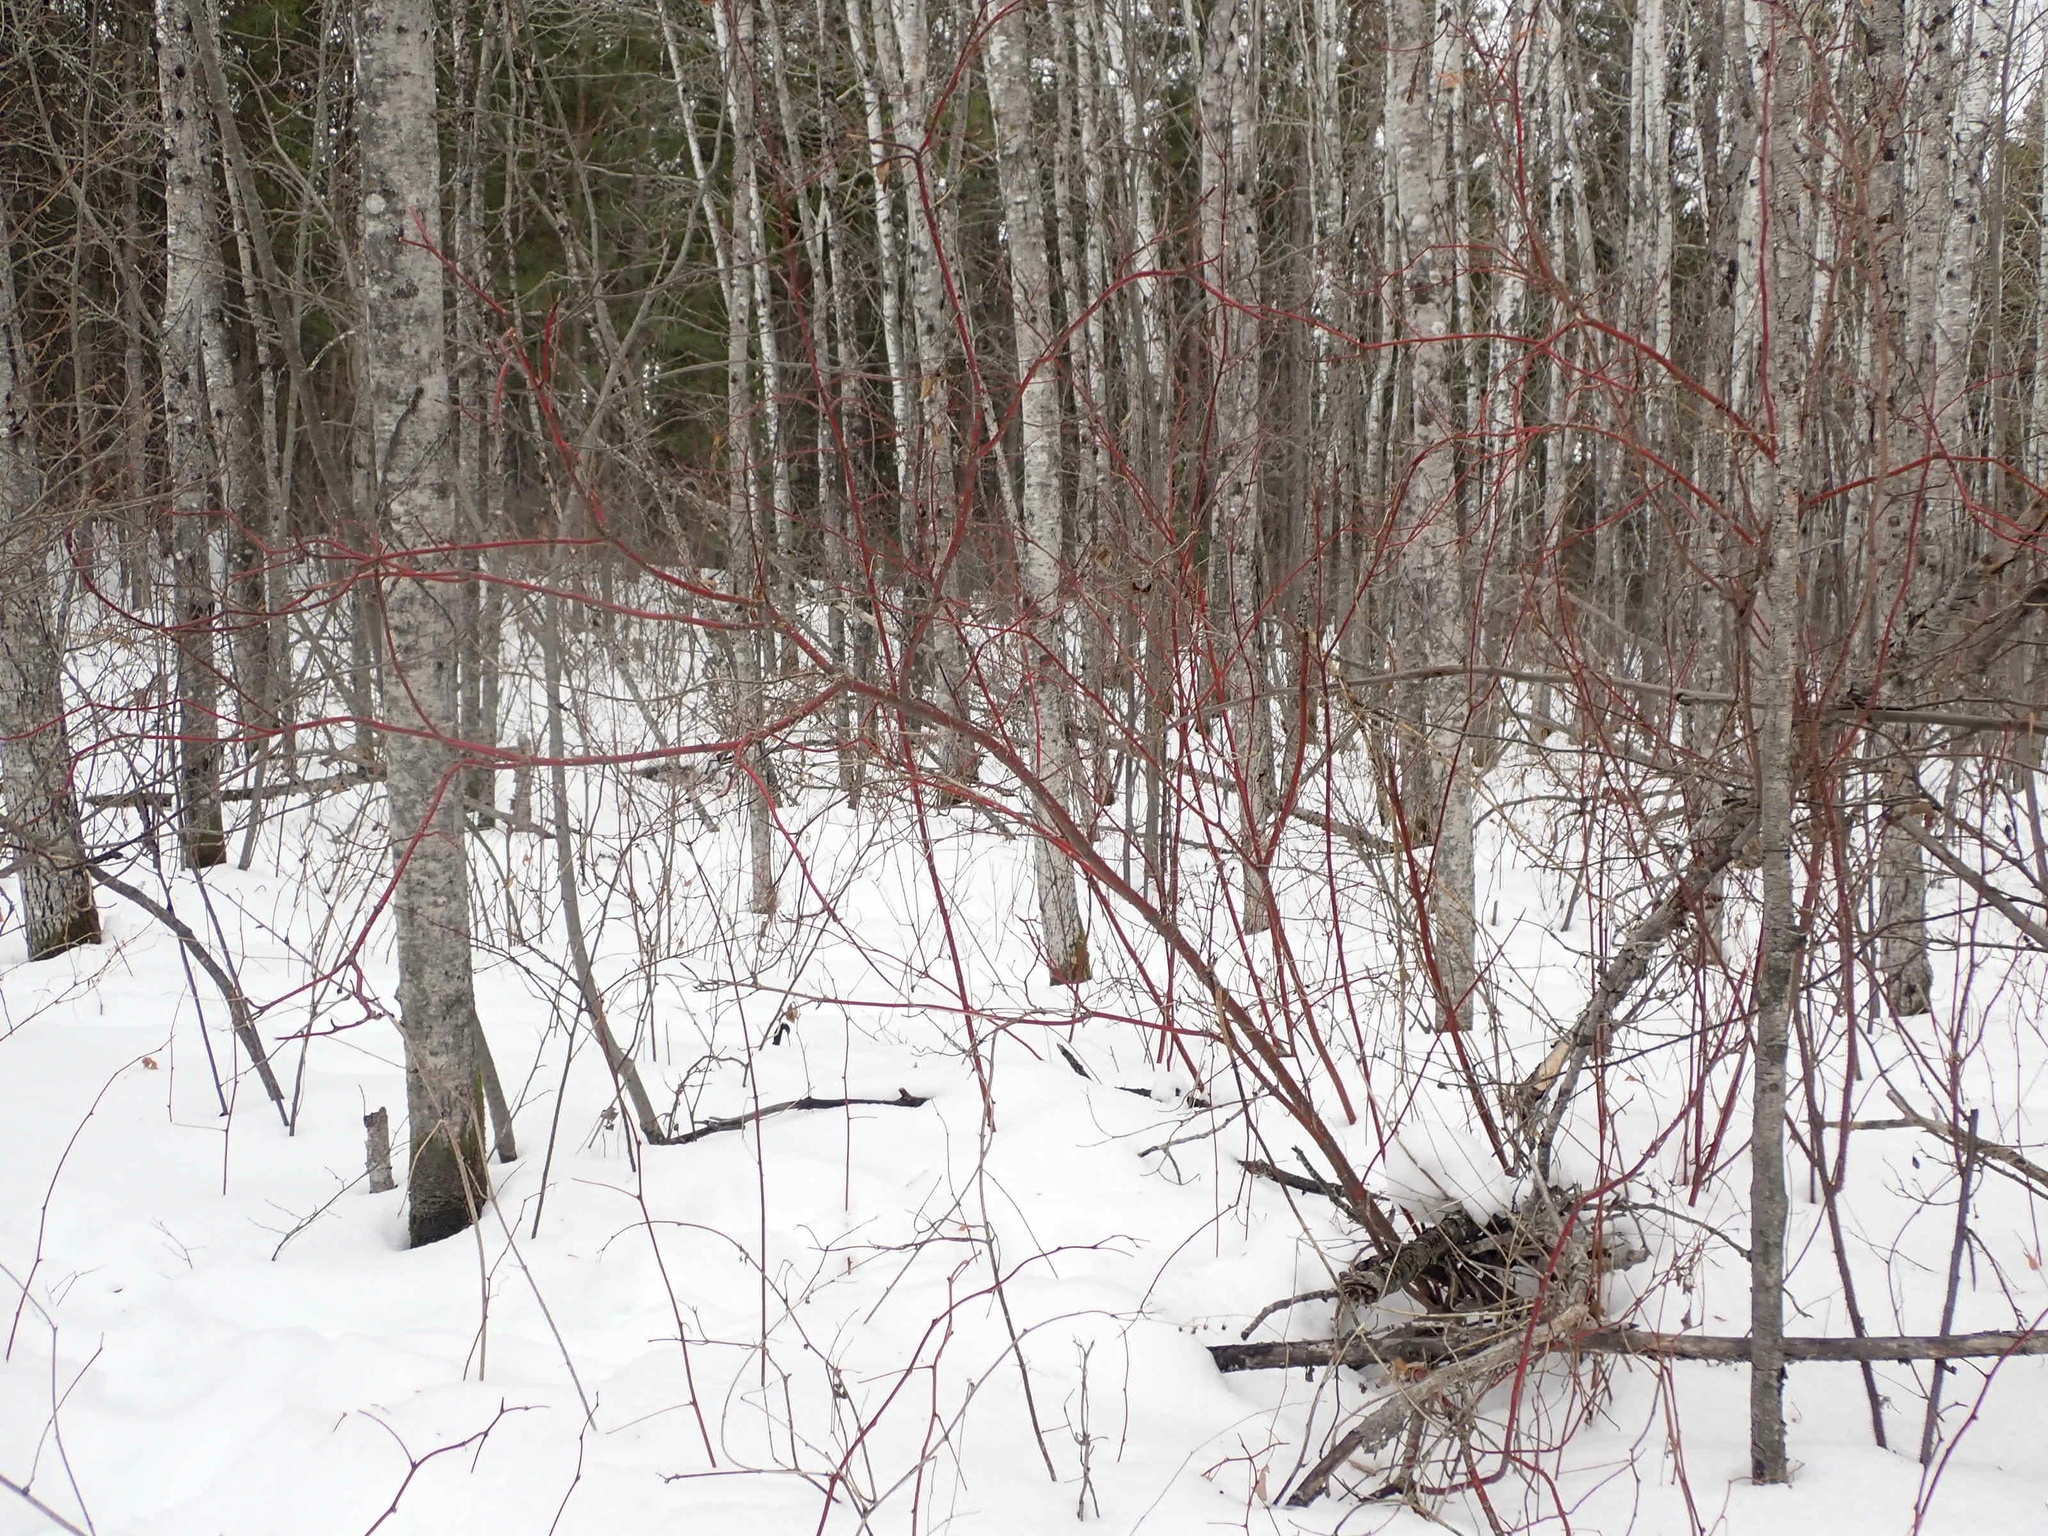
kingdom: Plantae
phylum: Tracheophyta
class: Magnoliopsida
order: Cornales
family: Cornaceae
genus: Cornus
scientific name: Cornus sericea
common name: Red-osier dogwood
